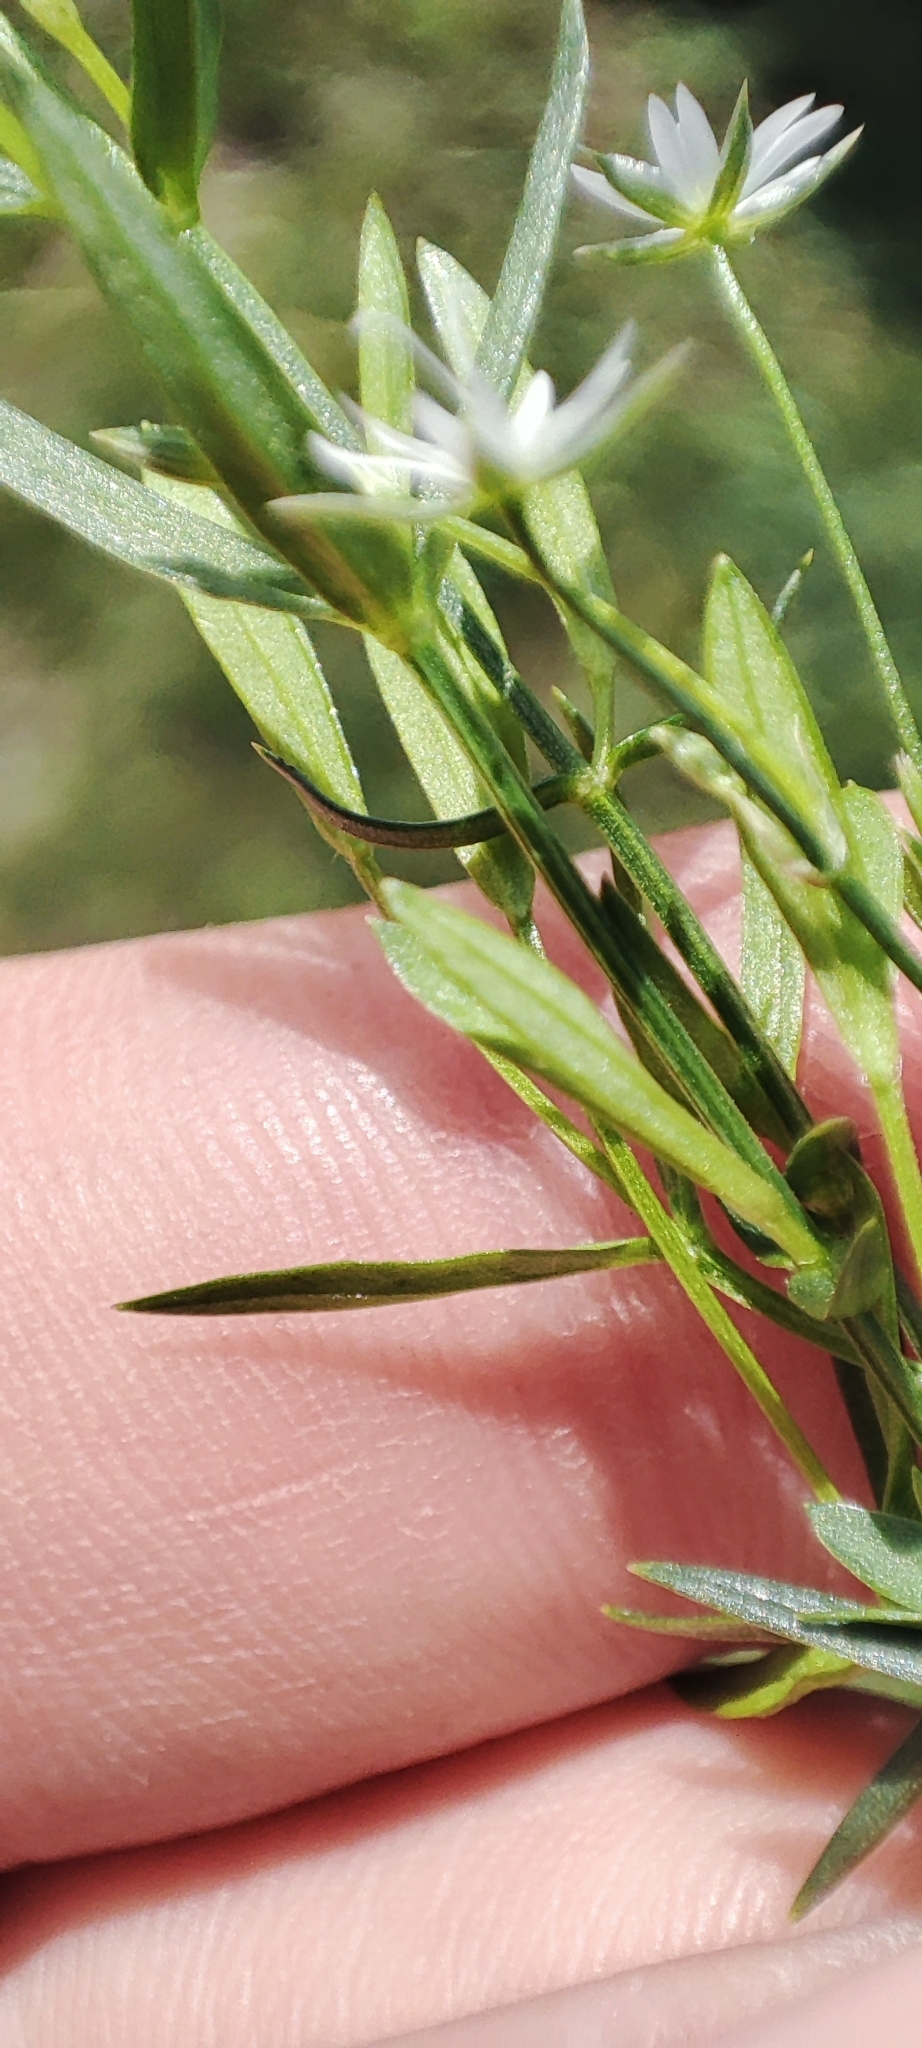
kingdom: Plantae
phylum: Tracheophyta
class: Magnoliopsida
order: Caryophyllales
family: Caryophyllaceae
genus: Stellaria
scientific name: Stellaria graminea
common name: Grass-like starwort
